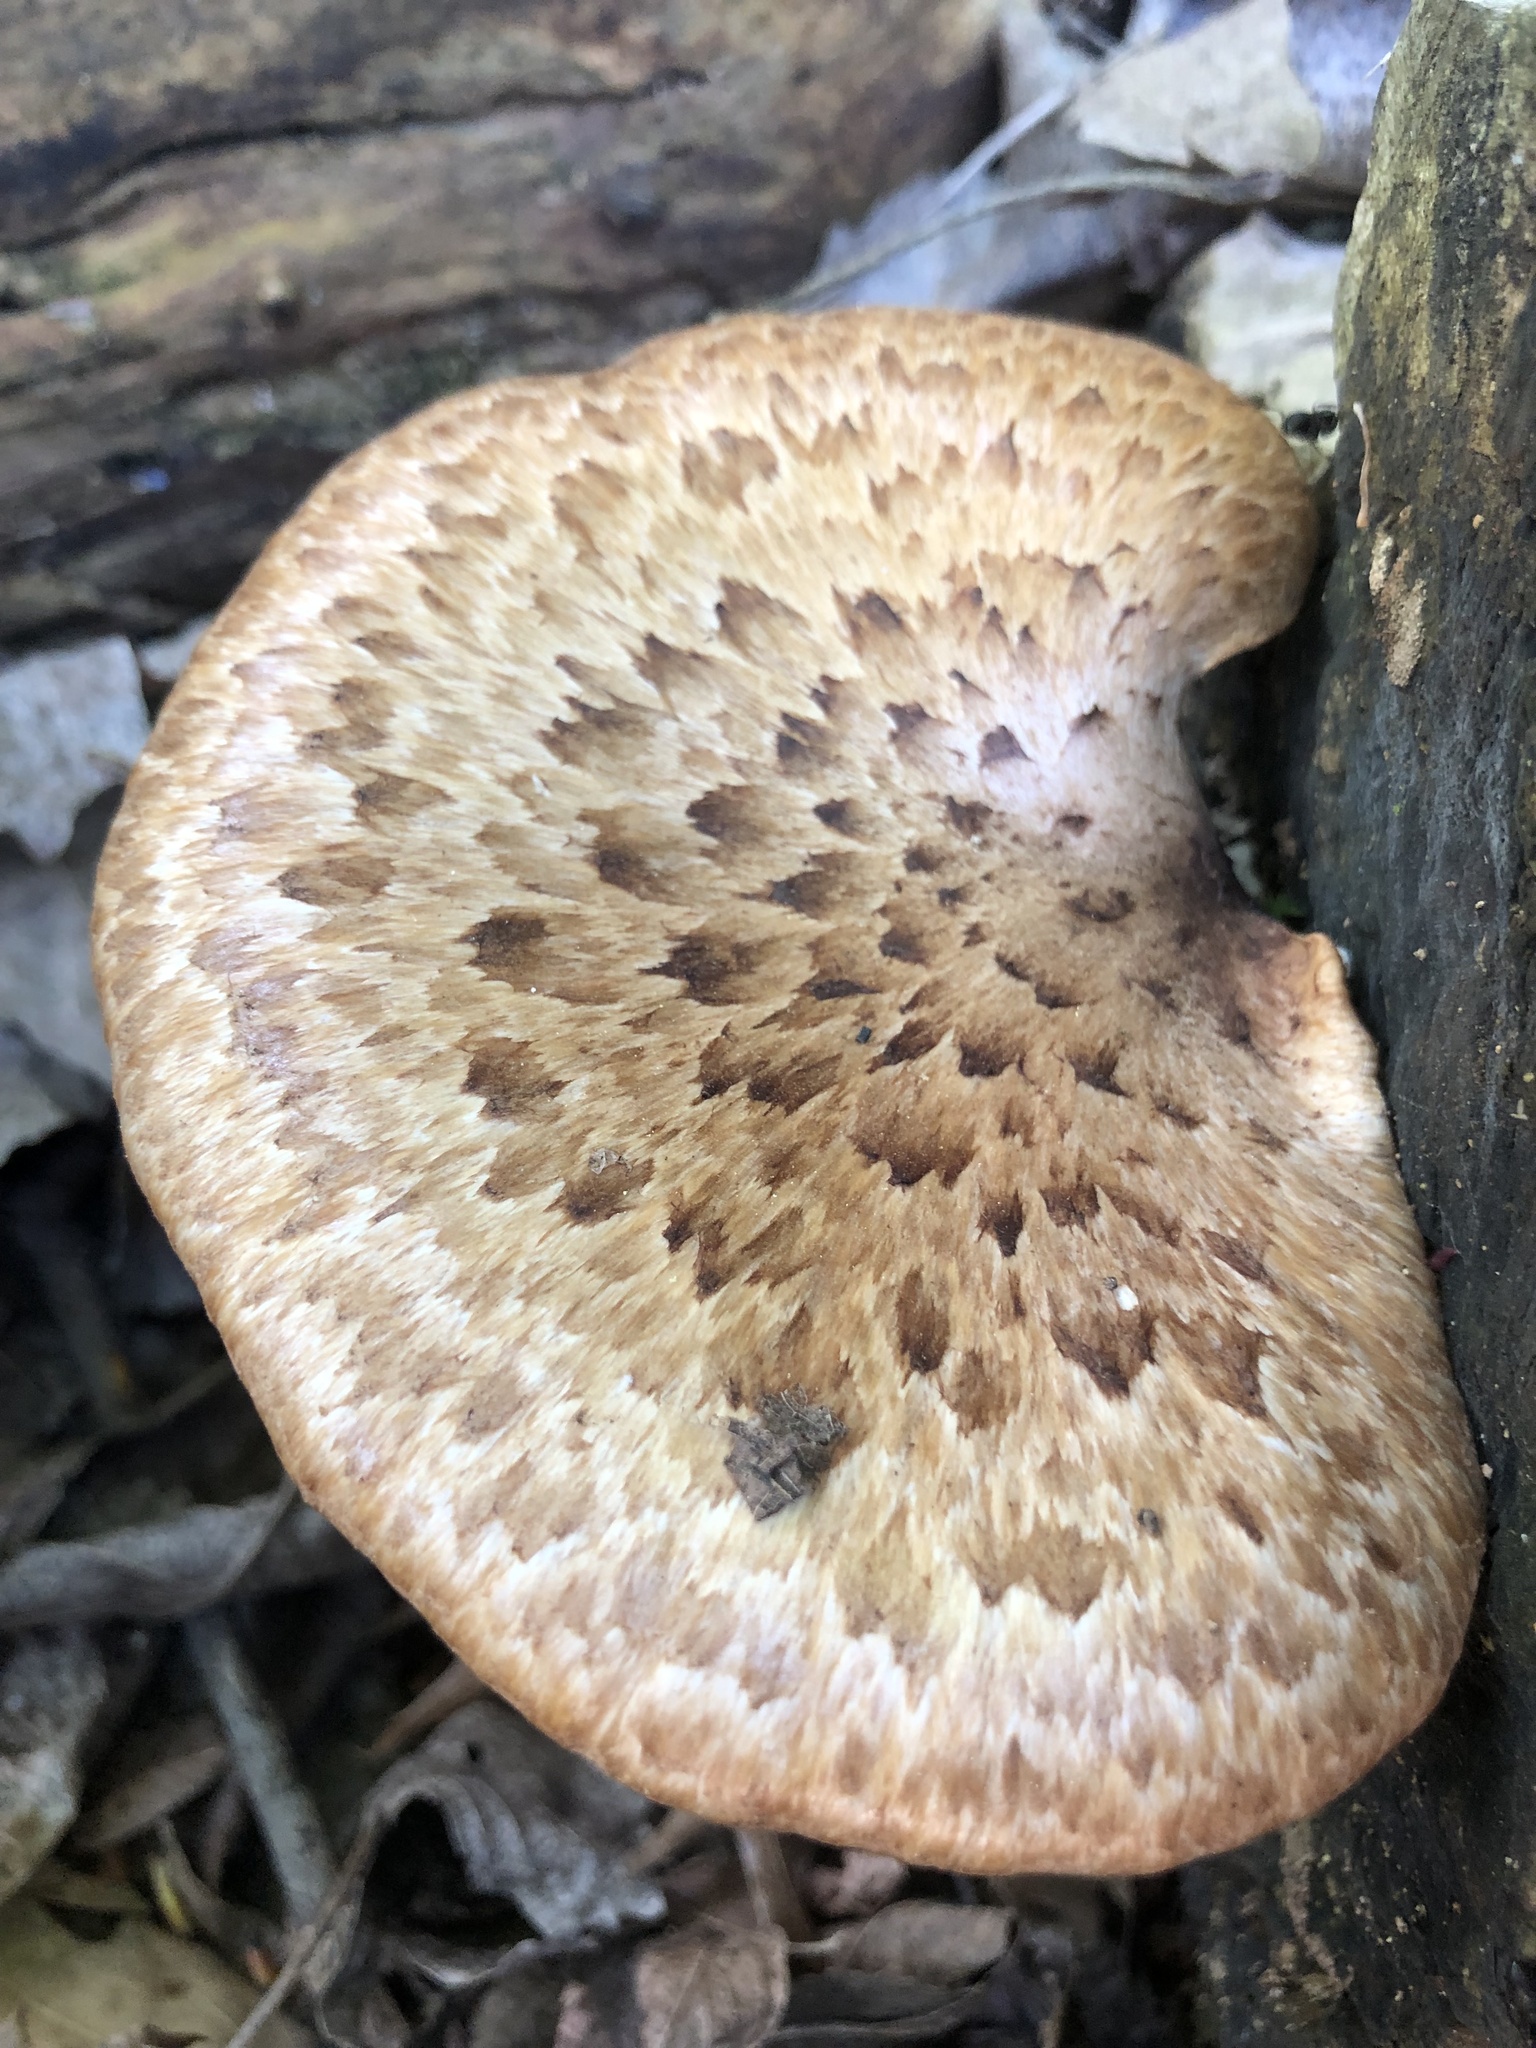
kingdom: Fungi
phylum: Basidiomycota
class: Agaricomycetes
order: Polyporales
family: Polyporaceae
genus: Cerioporus
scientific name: Cerioporus squamosus
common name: Dryad's saddle
